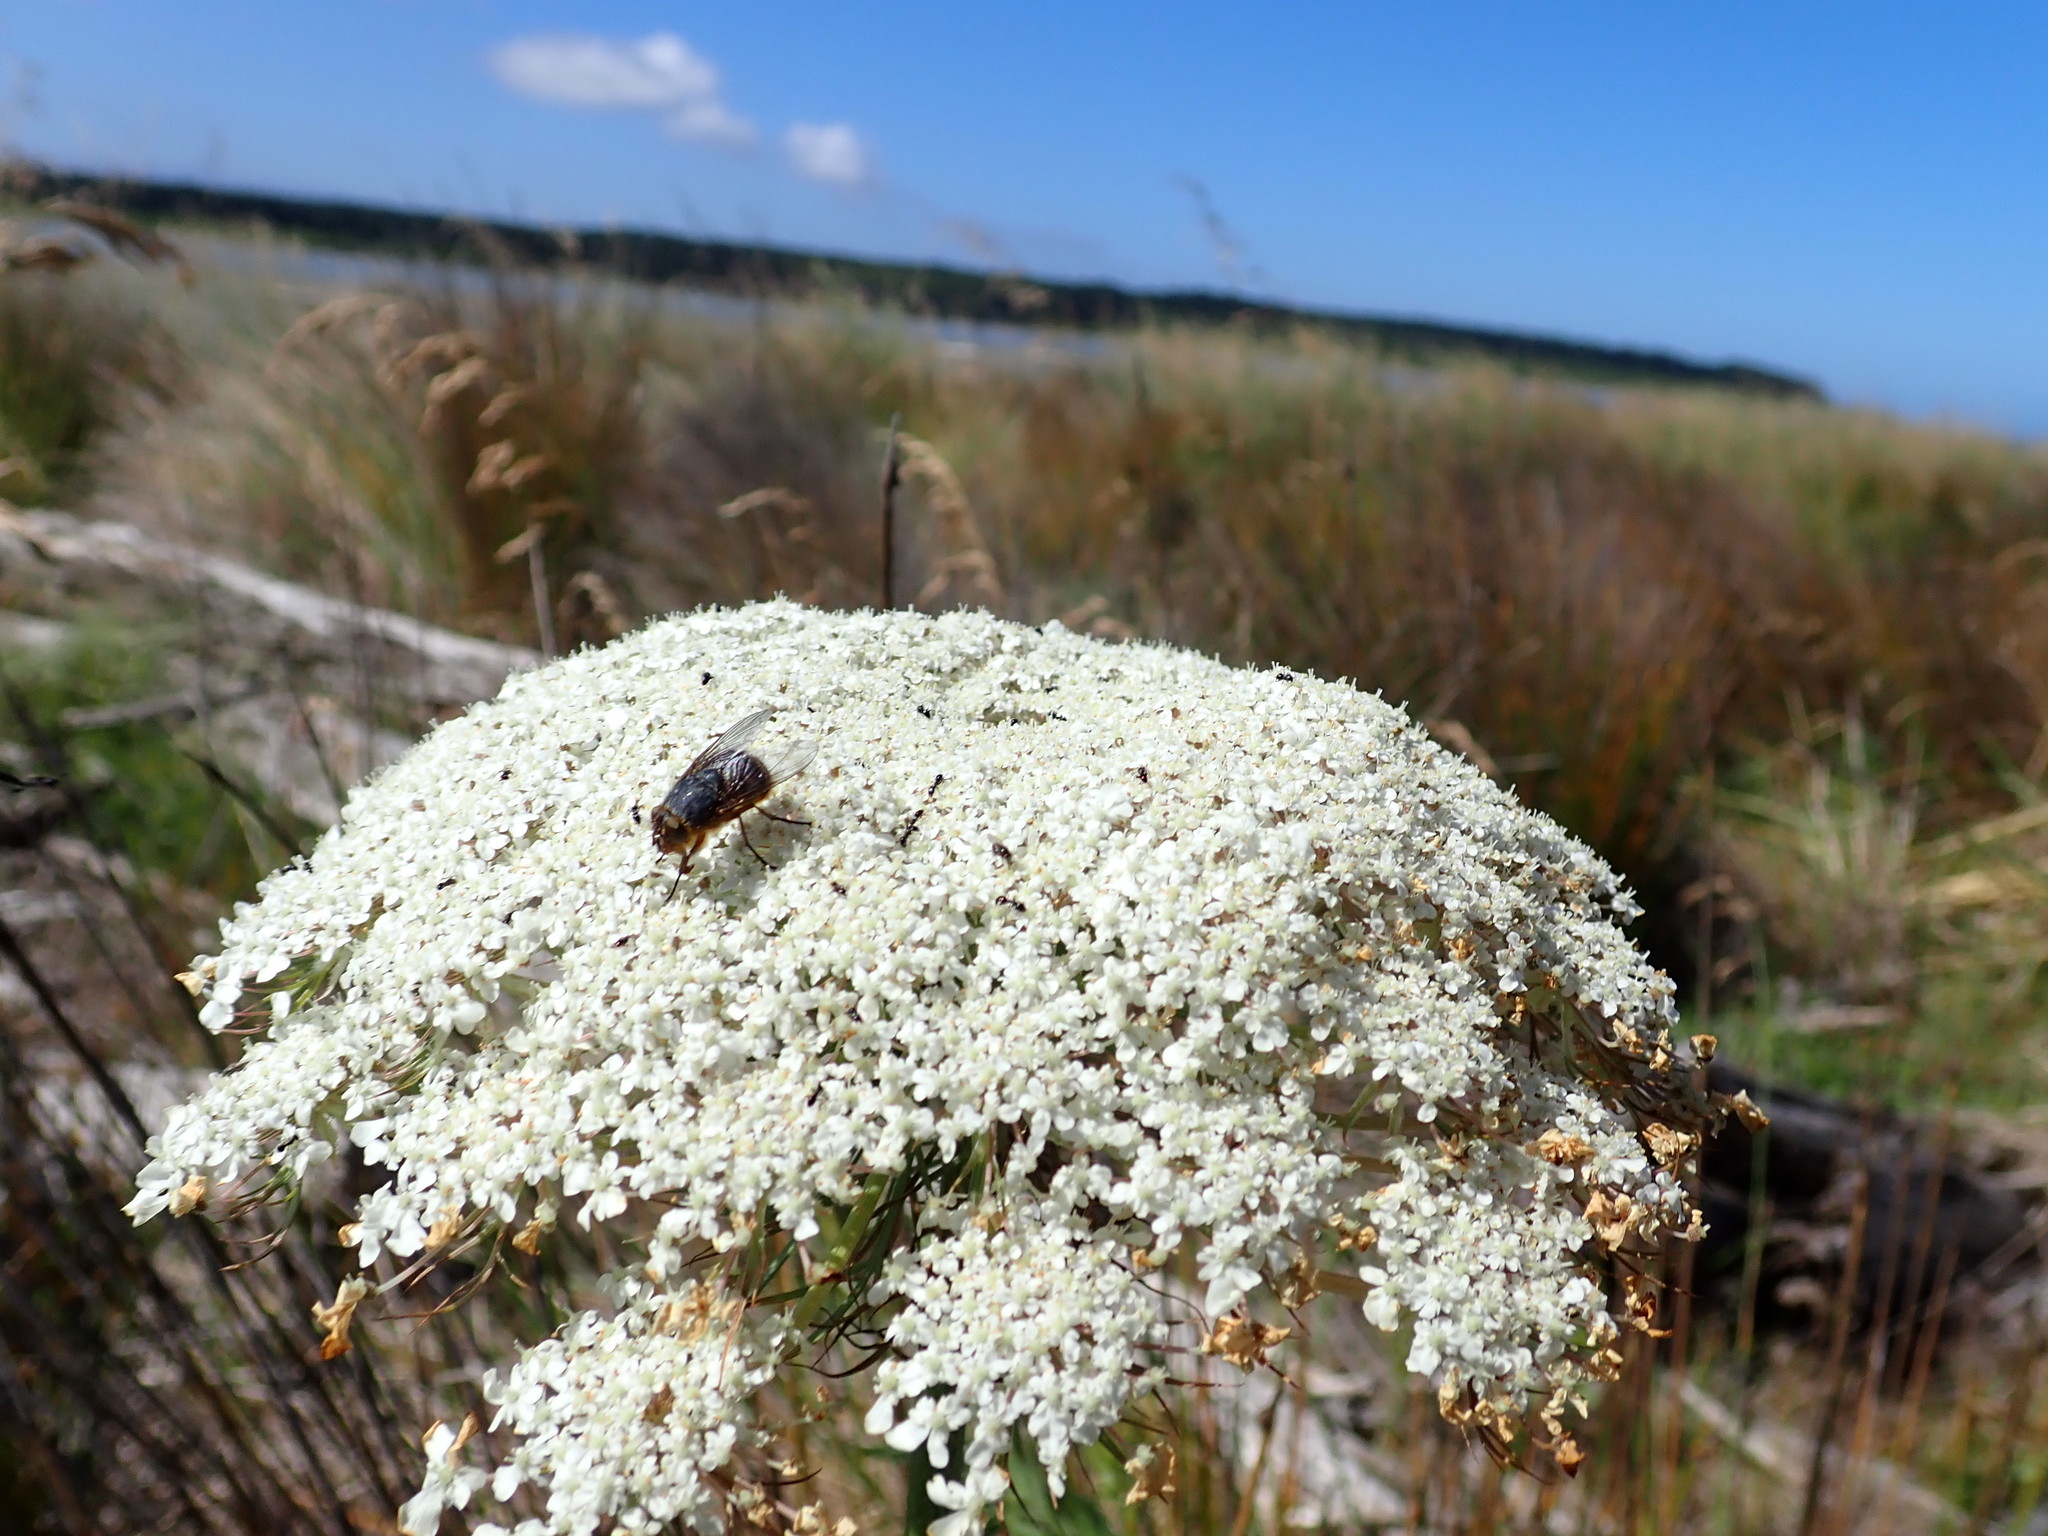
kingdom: Plantae
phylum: Tracheophyta
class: Magnoliopsida
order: Apiales
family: Apiaceae
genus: Daucus
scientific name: Daucus carota
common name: Wild carrot
